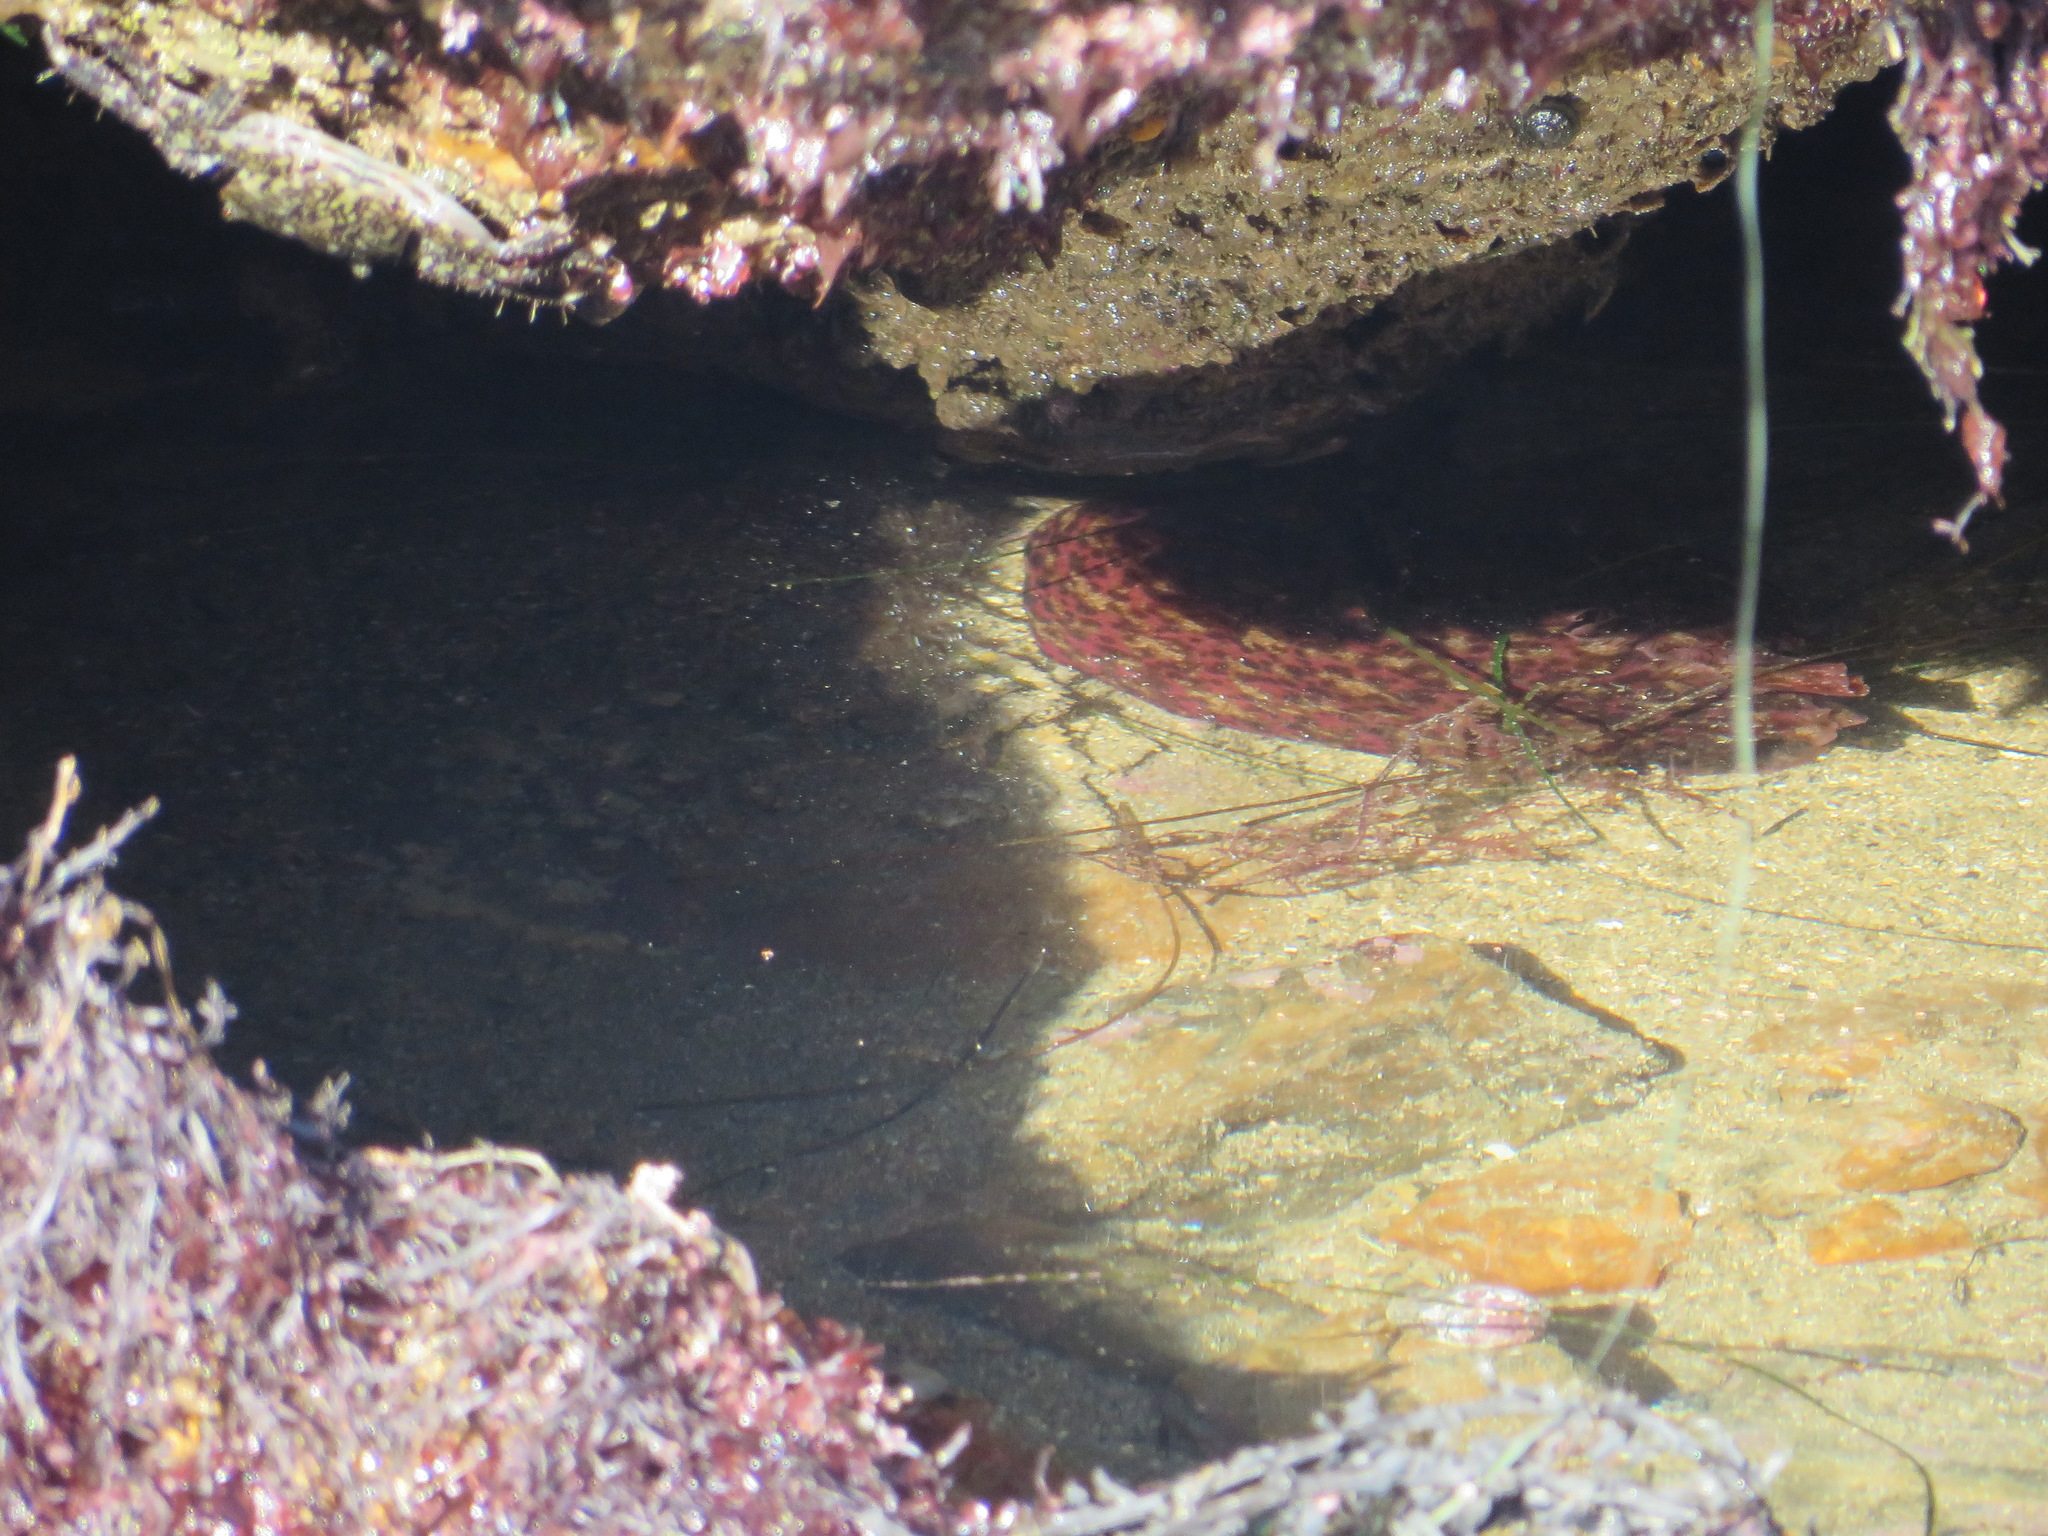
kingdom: Animalia
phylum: Mollusca
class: Gastropoda
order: Aplysiida
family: Aplysiidae
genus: Aplysia
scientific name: Aplysia californica
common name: California seahare
